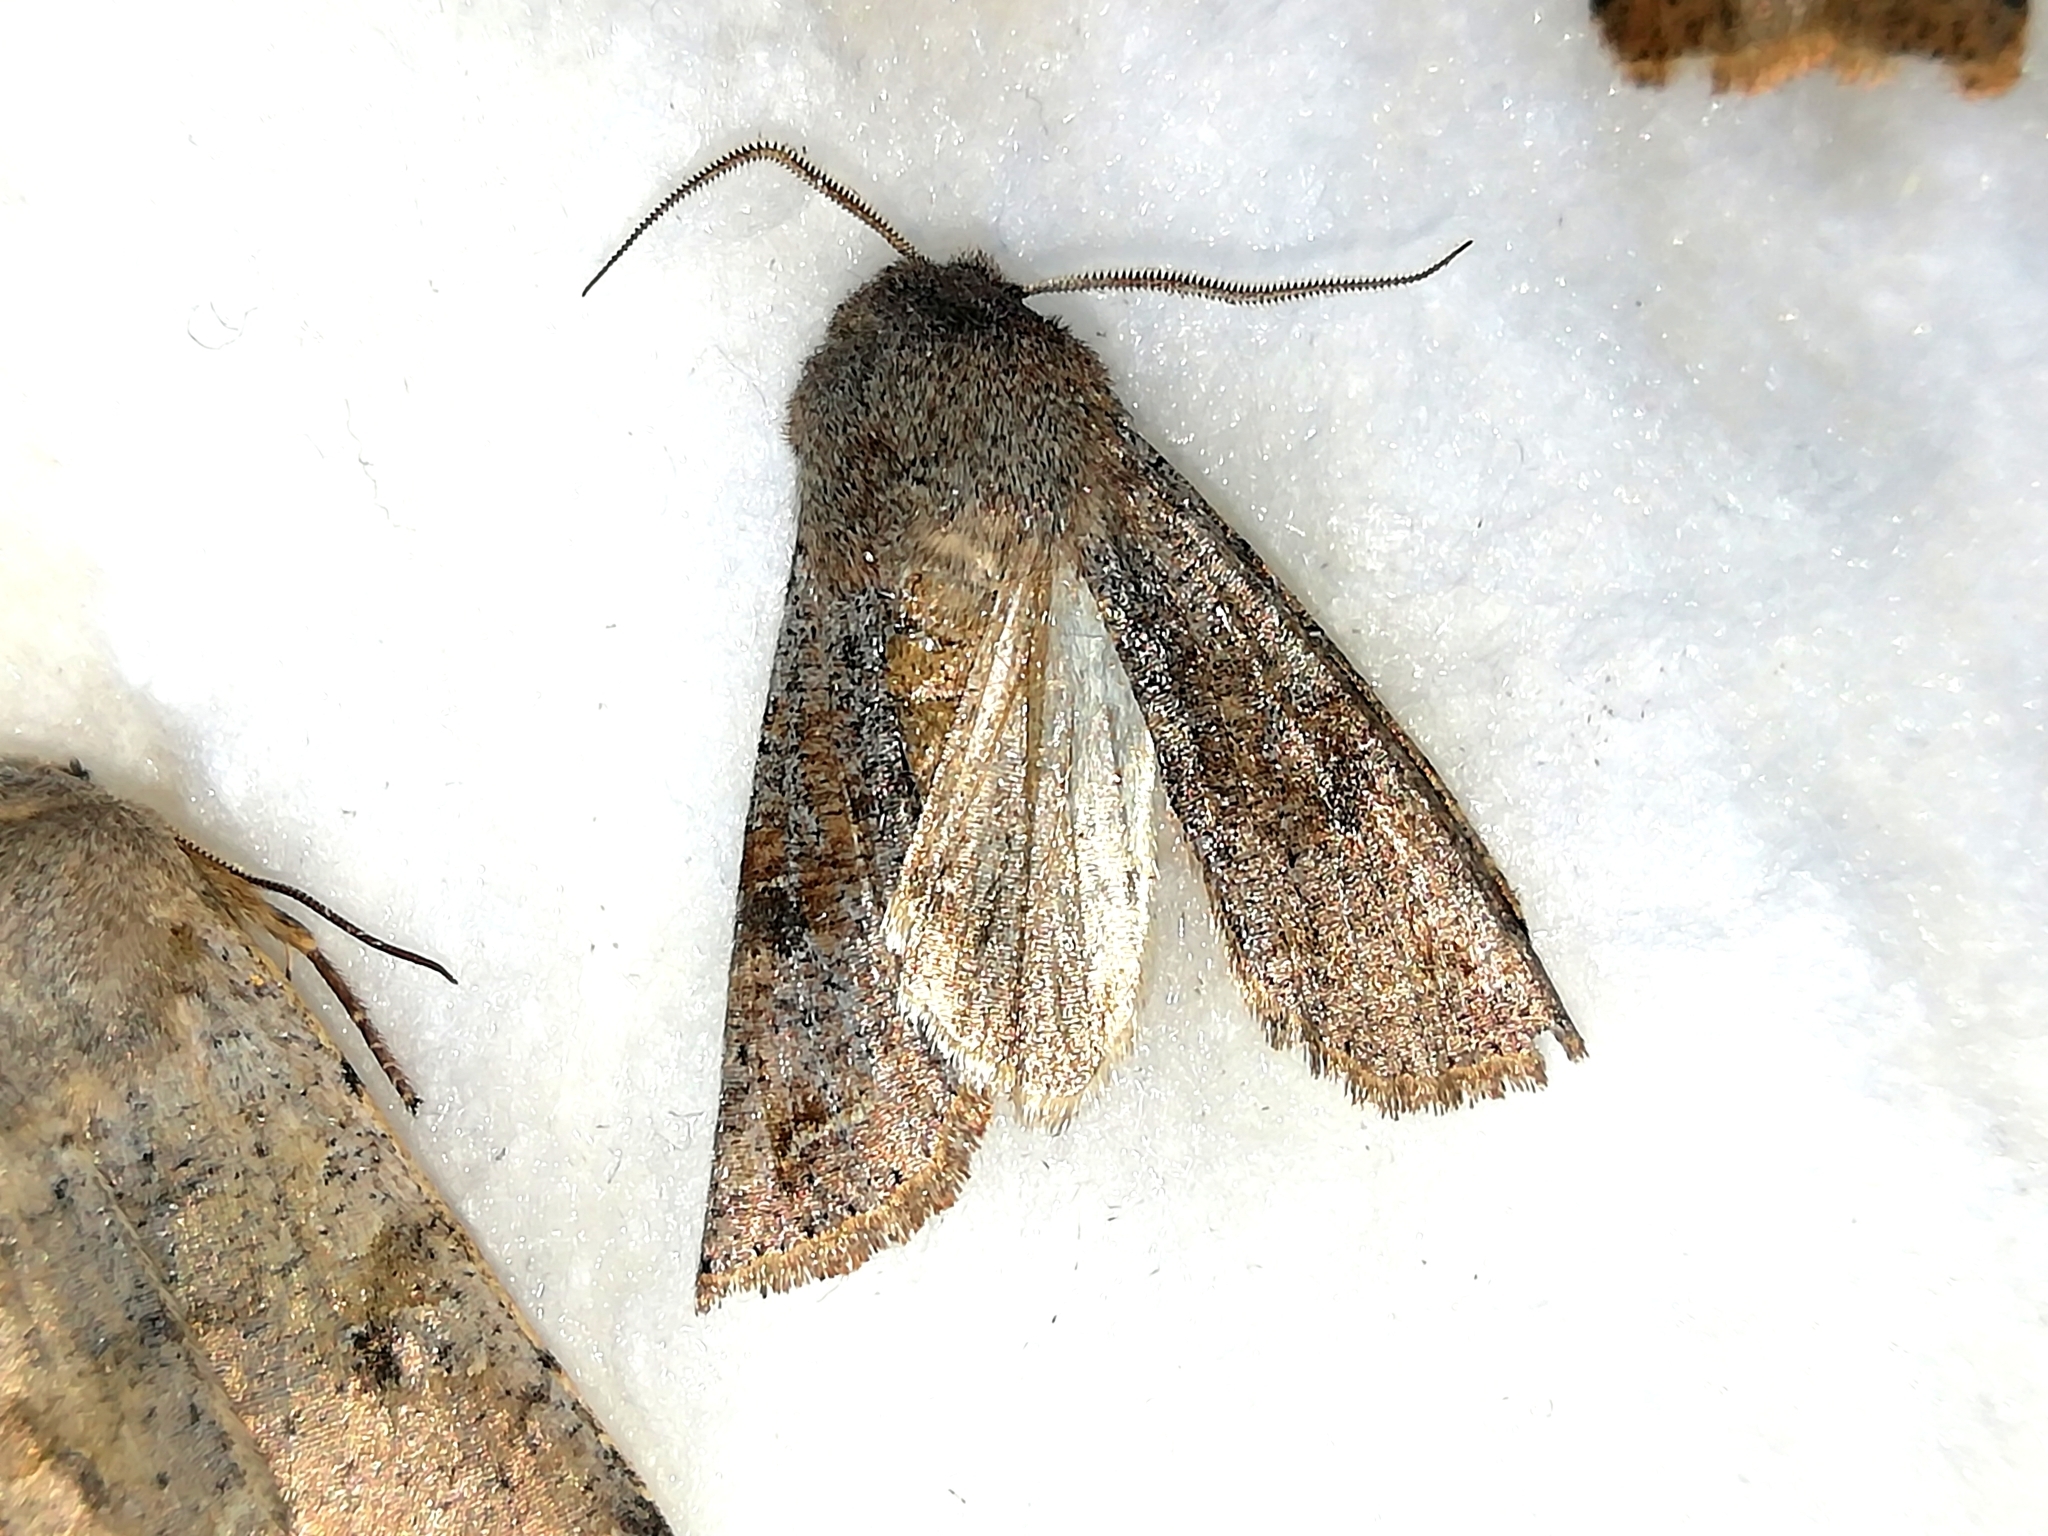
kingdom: Animalia
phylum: Arthropoda
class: Insecta
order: Lepidoptera
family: Noctuidae
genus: Orthosia
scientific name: Orthosia incerta
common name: Clouded drab
